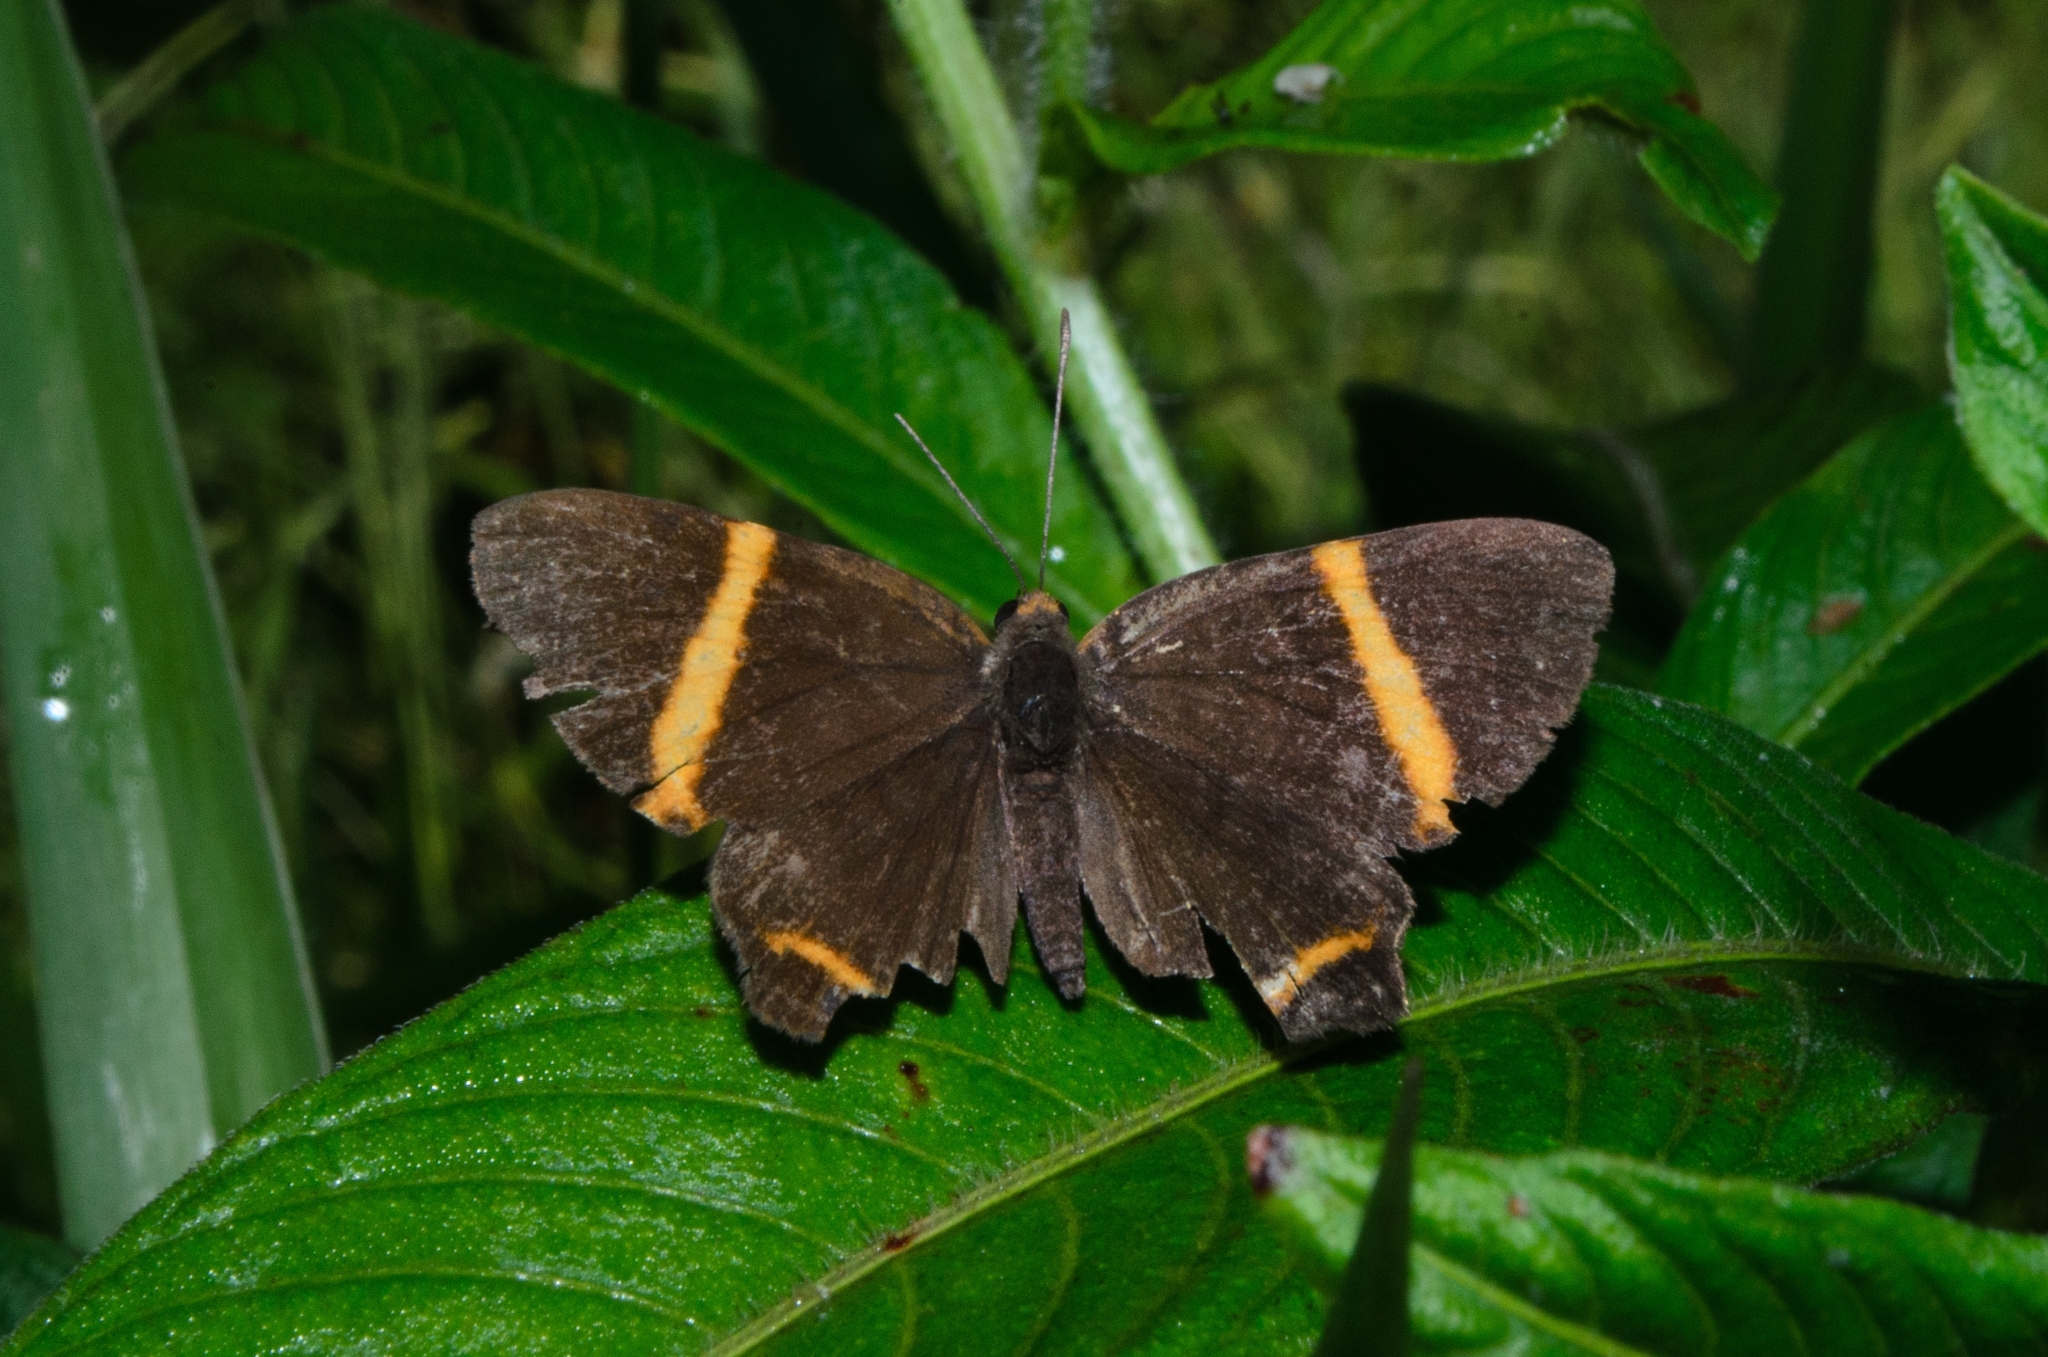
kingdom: Animalia
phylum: Arthropoda
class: Insecta
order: Lepidoptera
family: Riodinidae
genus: Riodina
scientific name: Riodina lysippoides
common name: Little dancer metalmark
